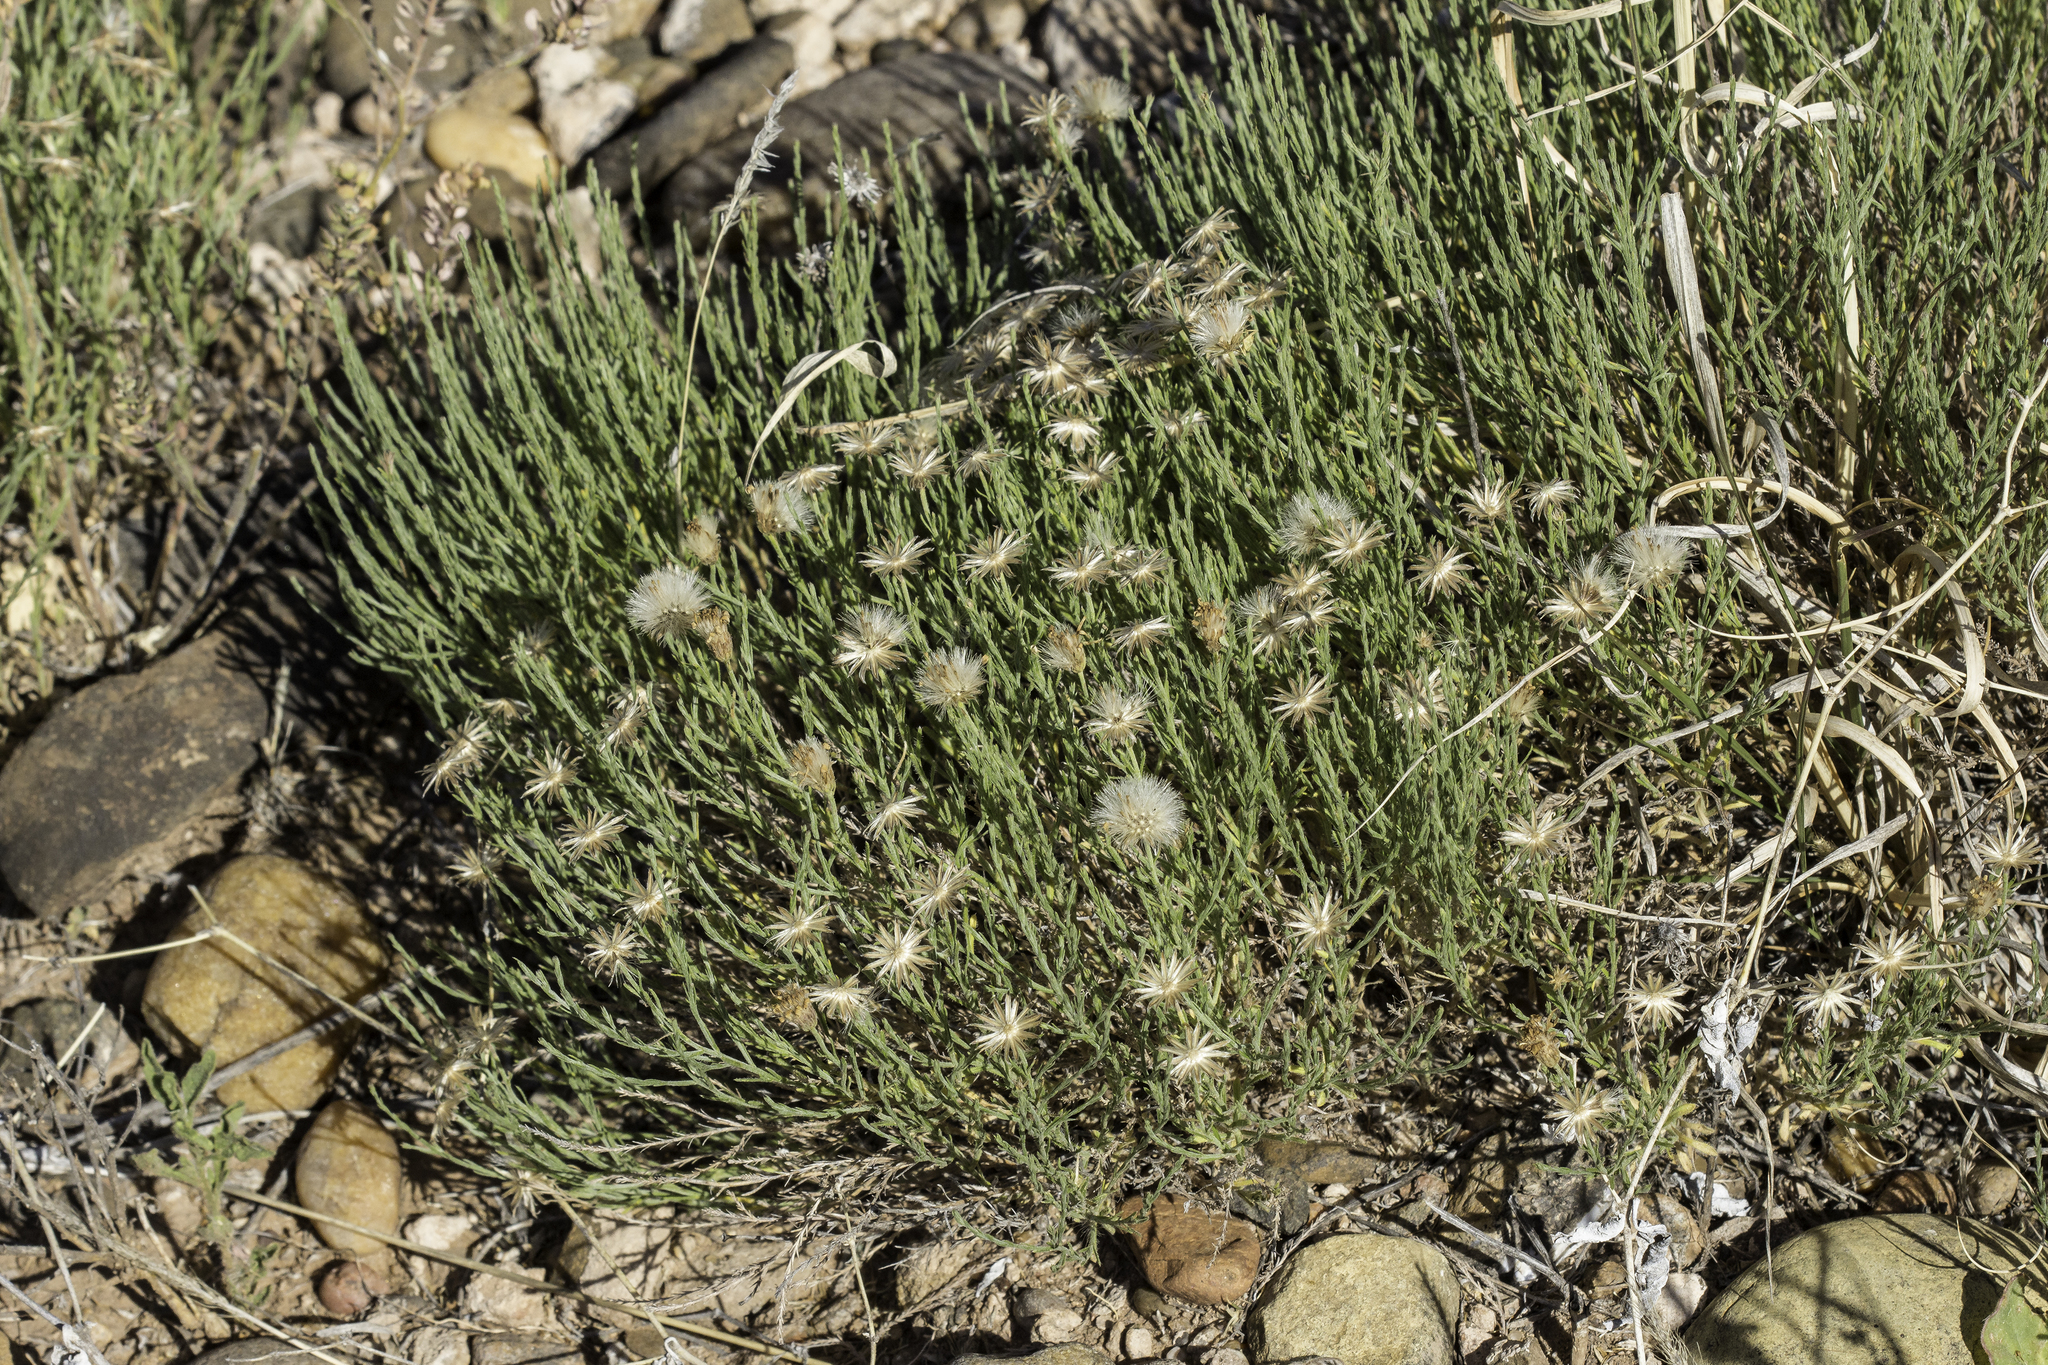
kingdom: Plantae
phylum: Tracheophyta
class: Magnoliopsida
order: Asterales
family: Asteraceae
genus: Chaetopappa
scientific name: Chaetopappa ericoides
